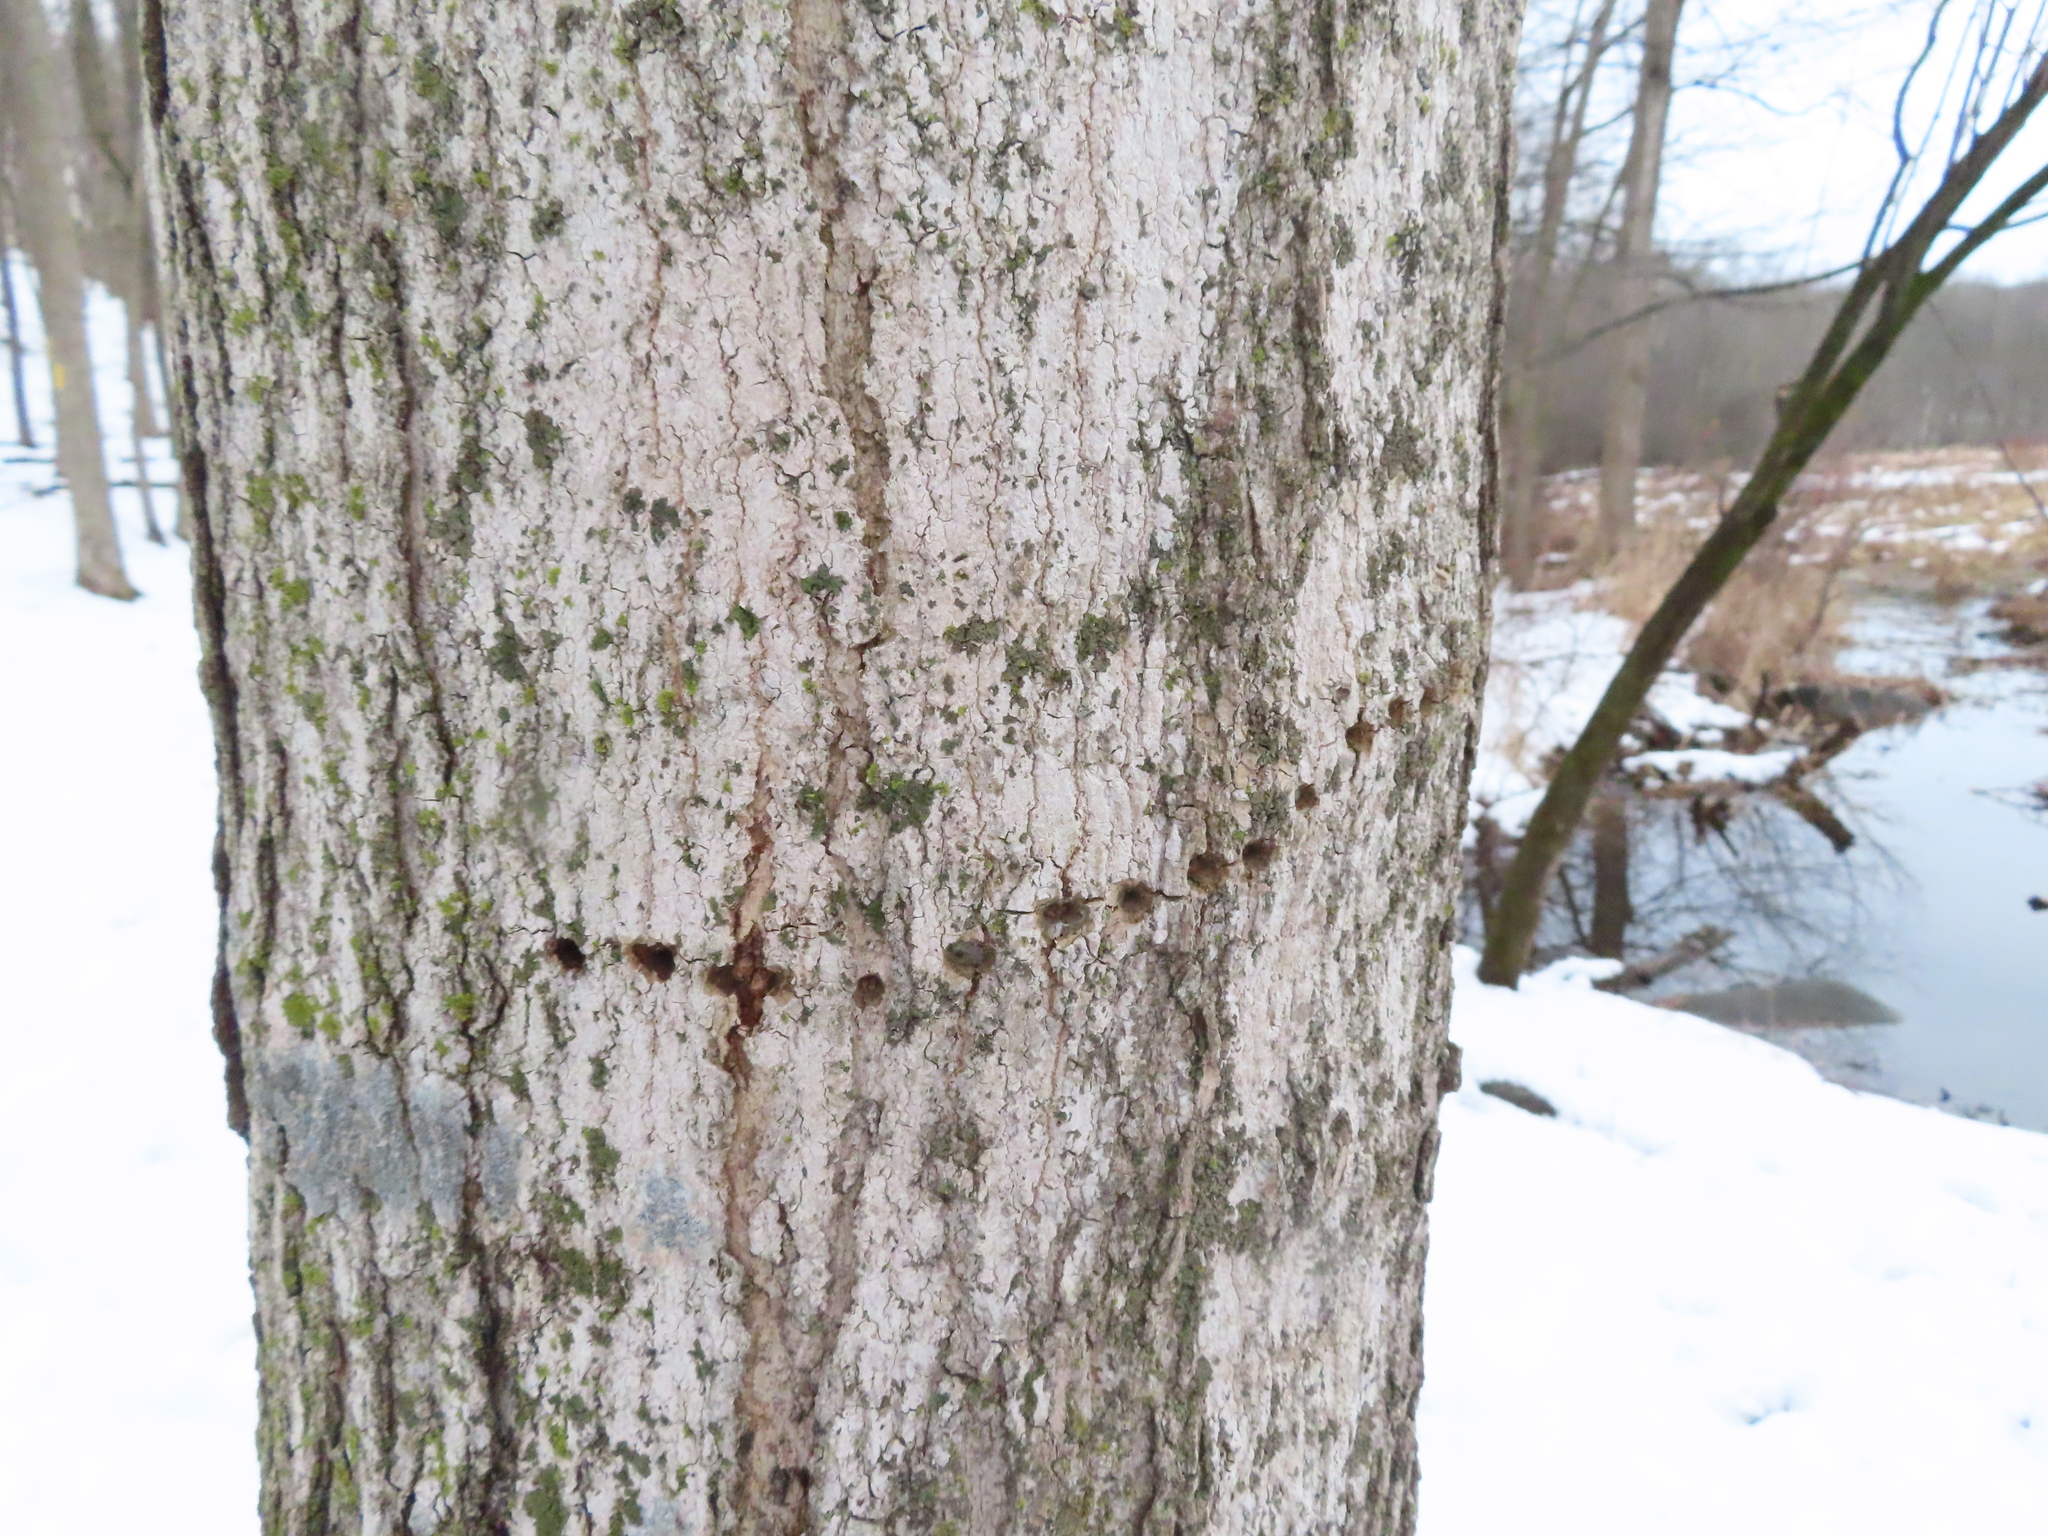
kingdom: Animalia
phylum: Chordata
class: Aves
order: Piciformes
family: Picidae
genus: Sphyrapicus
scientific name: Sphyrapicus varius
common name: Yellow-bellied sapsucker
